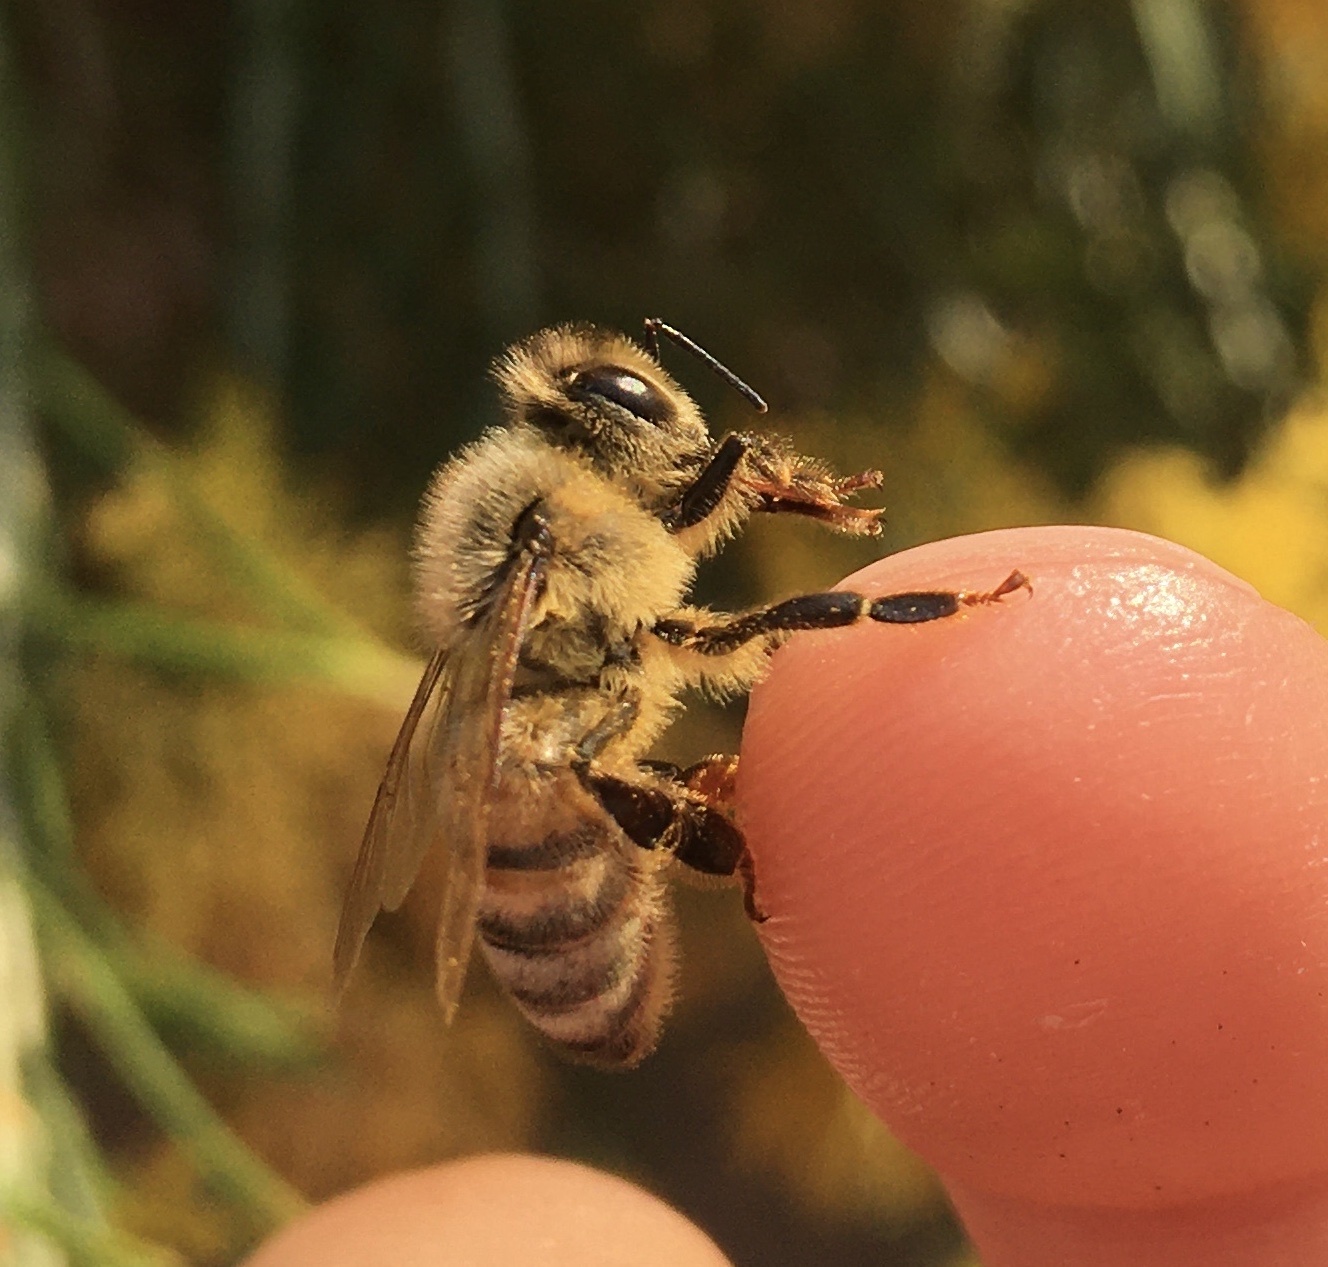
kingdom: Animalia
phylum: Arthropoda
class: Insecta
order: Hymenoptera
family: Apidae
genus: Apis
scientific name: Apis mellifera
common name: Honey bee
